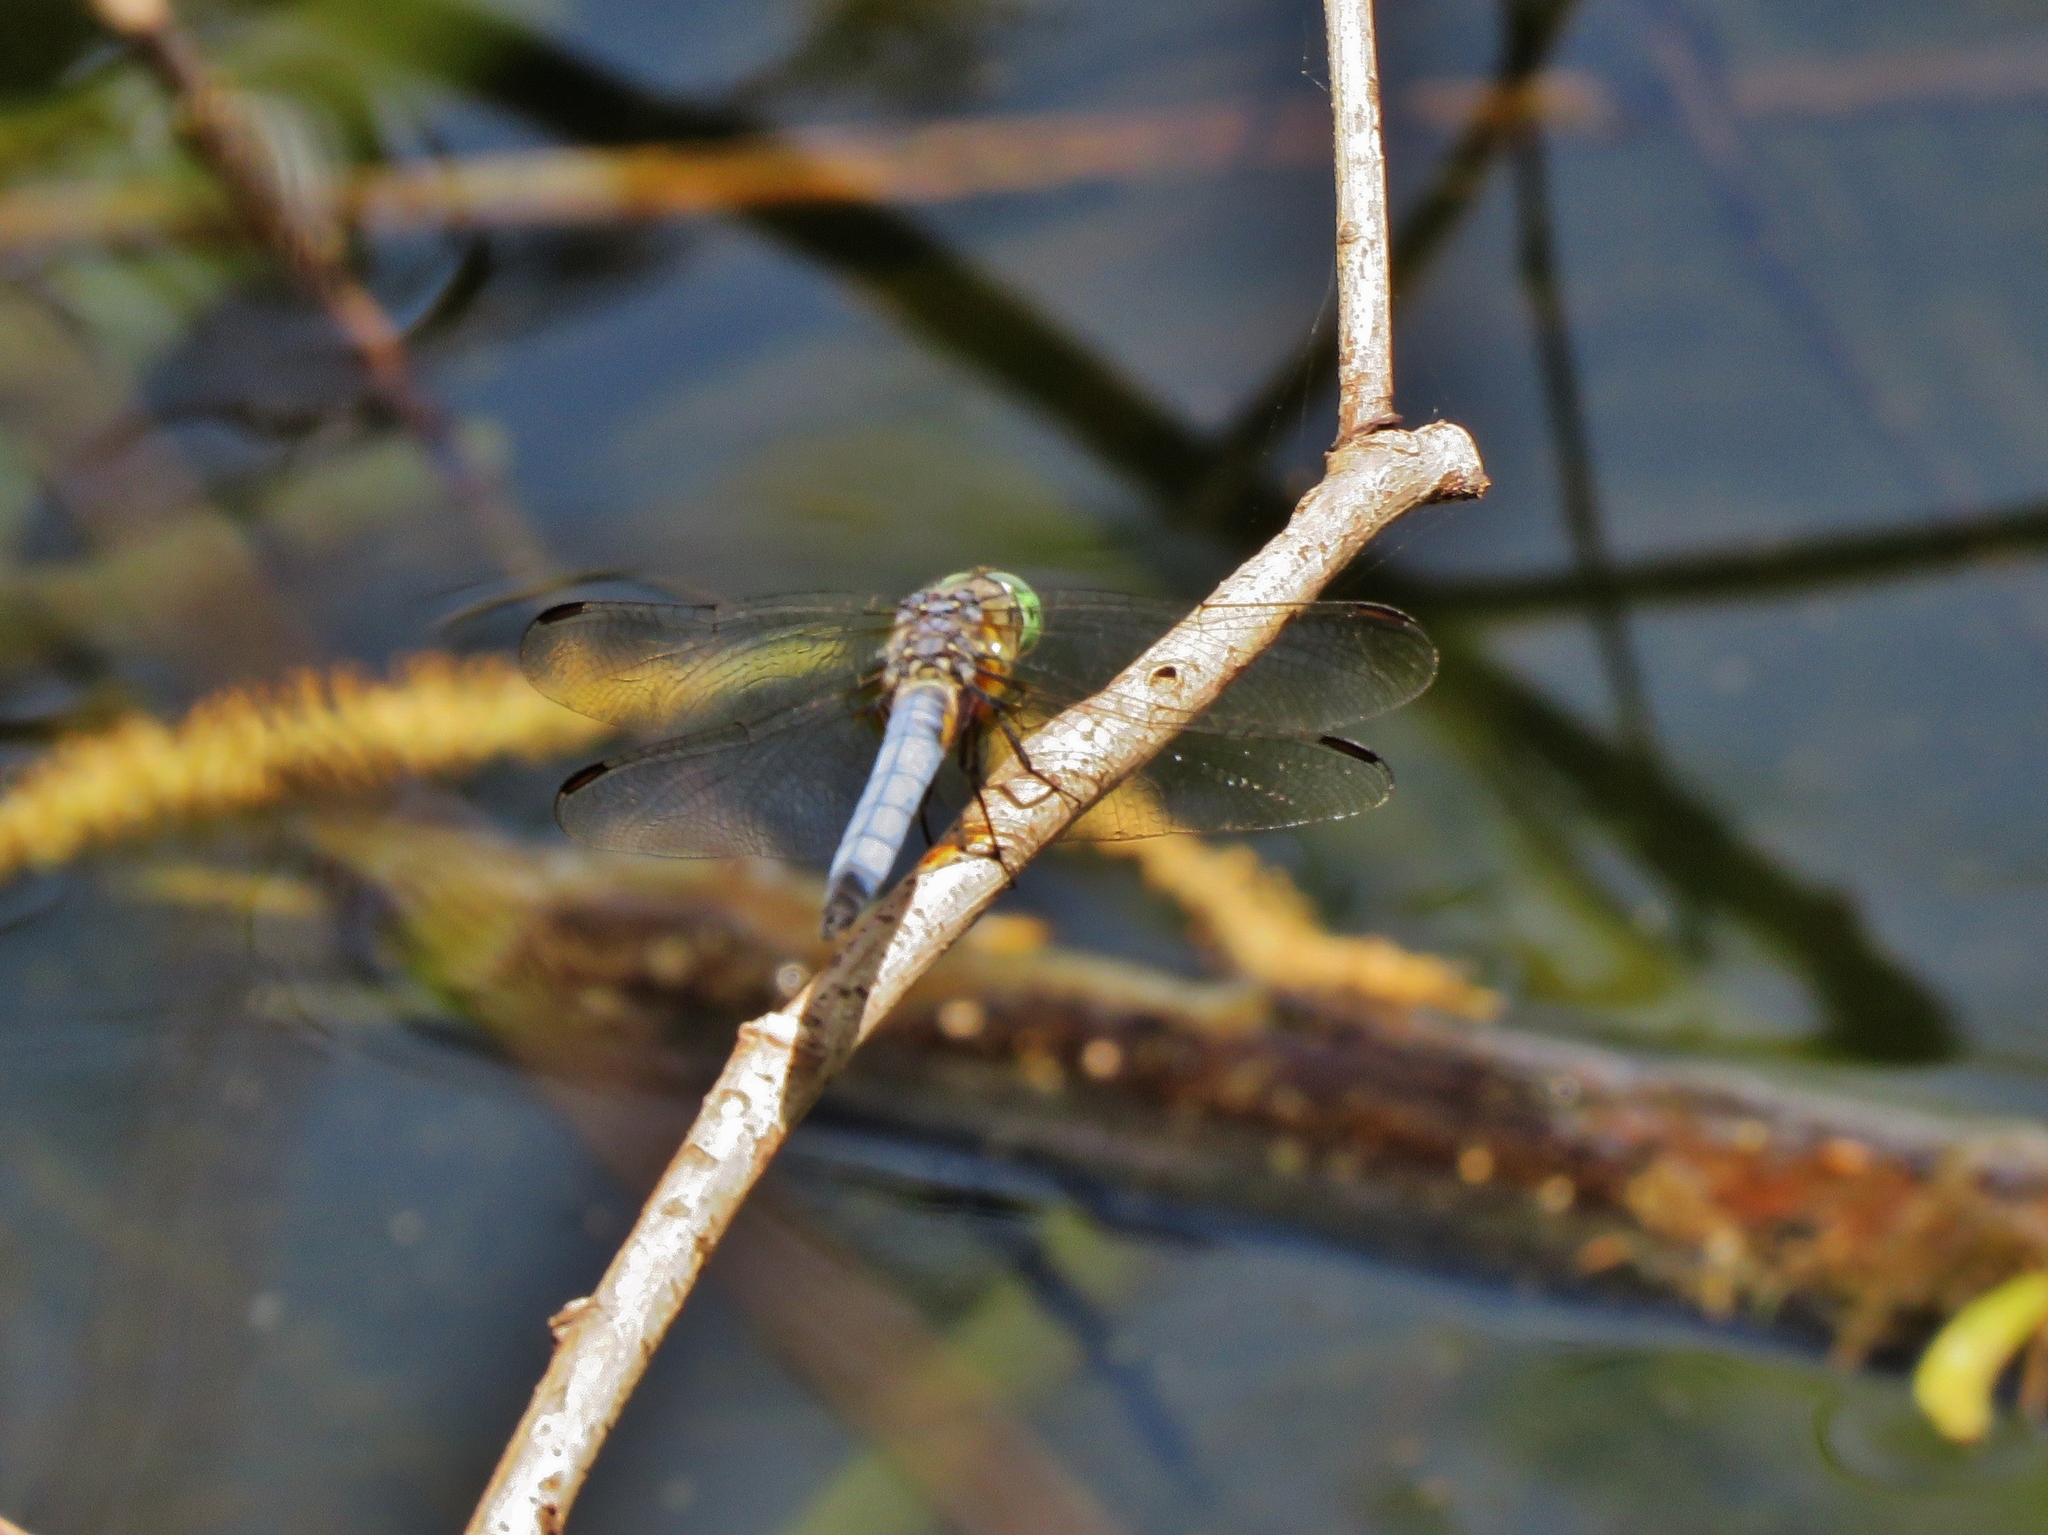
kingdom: Animalia
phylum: Arthropoda
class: Insecta
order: Odonata
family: Libellulidae
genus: Pachydiplax
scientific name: Pachydiplax longipennis
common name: Blue dasher
